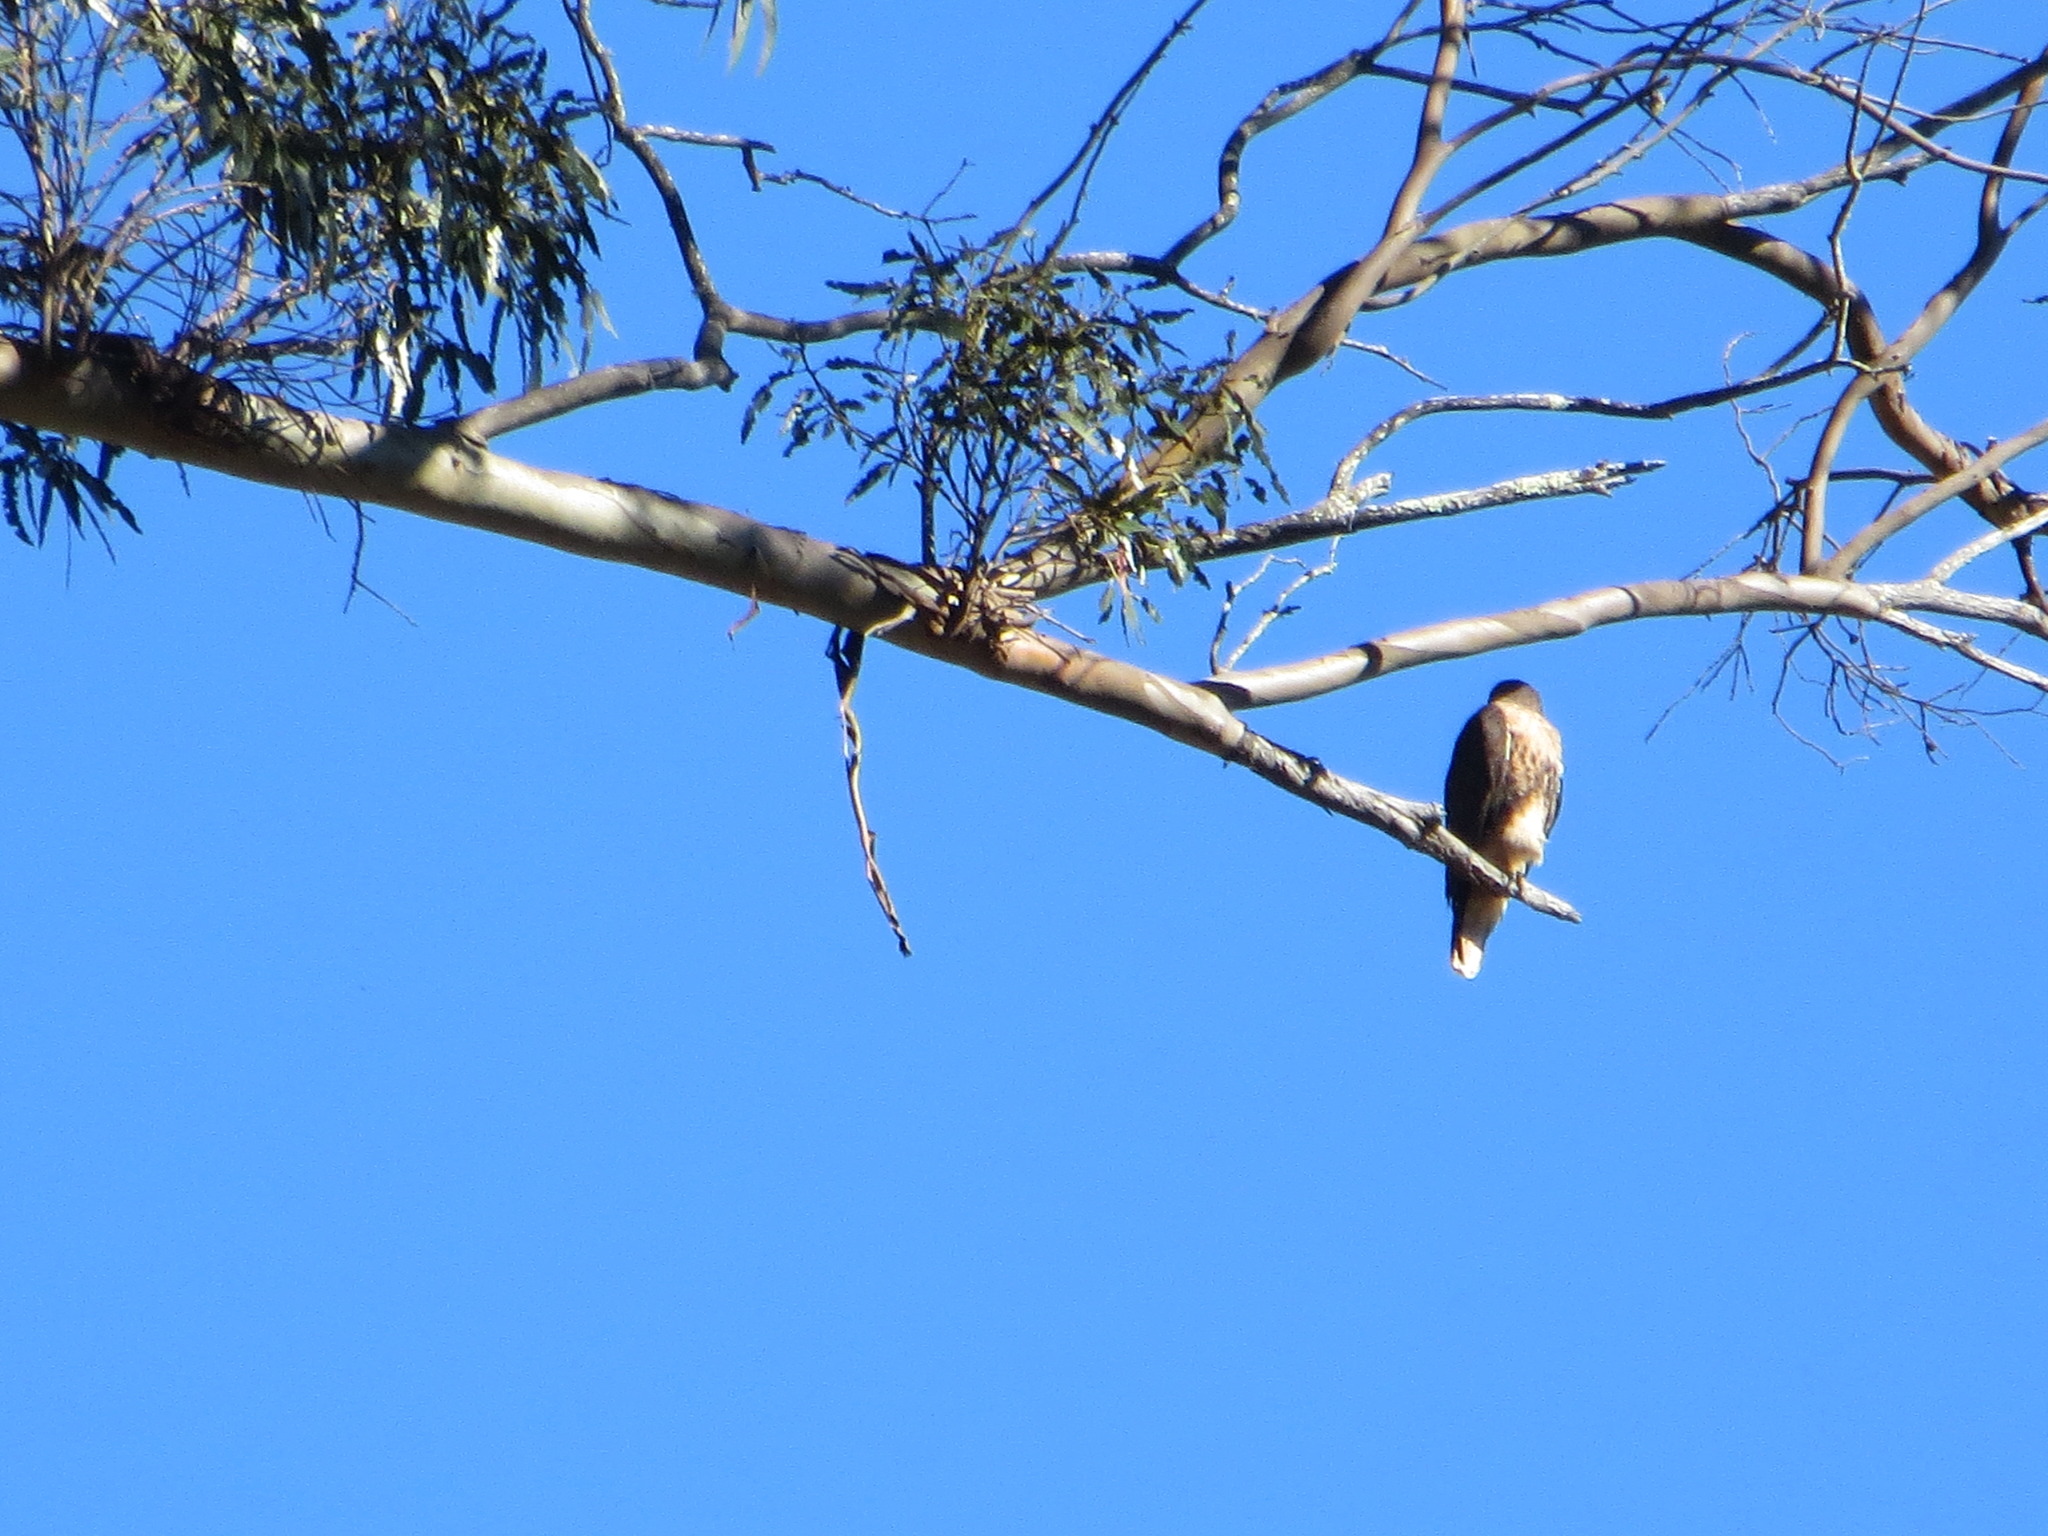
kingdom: Animalia
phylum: Chordata
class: Aves
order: Accipitriformes
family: Accipitridae
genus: Buteo
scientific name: Buteo jamaicensis
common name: Red-tailed hawk
